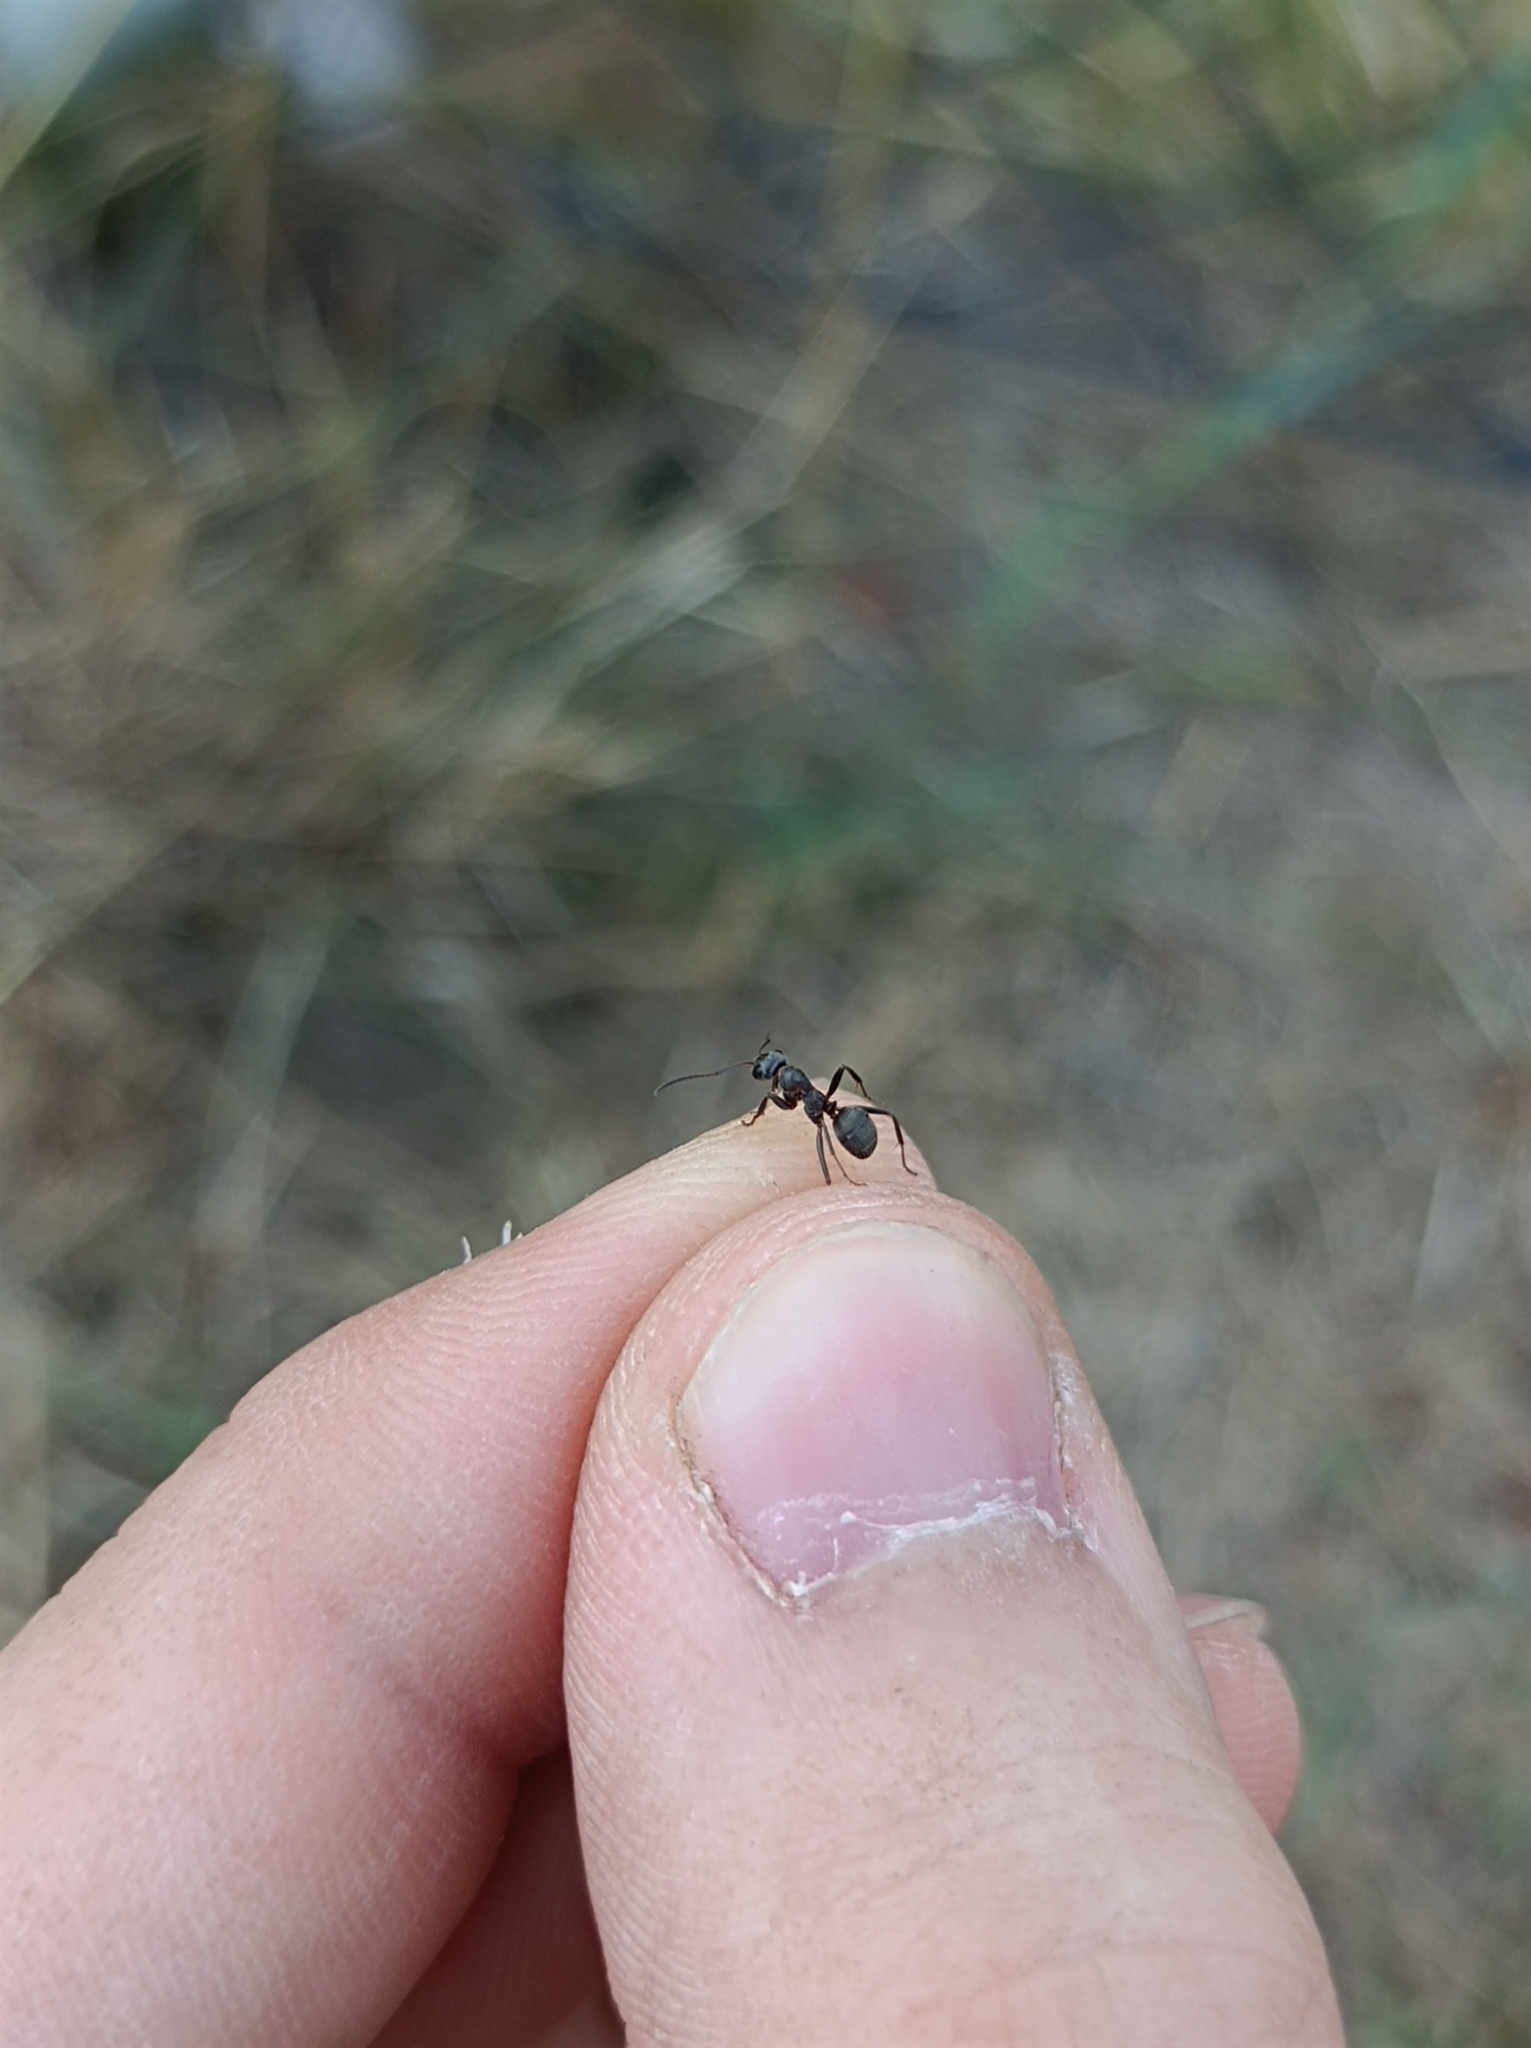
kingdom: Animalia
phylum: Arthropoda
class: Insecta
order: Hymenoptera
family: Formicidae
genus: Formica
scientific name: Formica cunicularia
